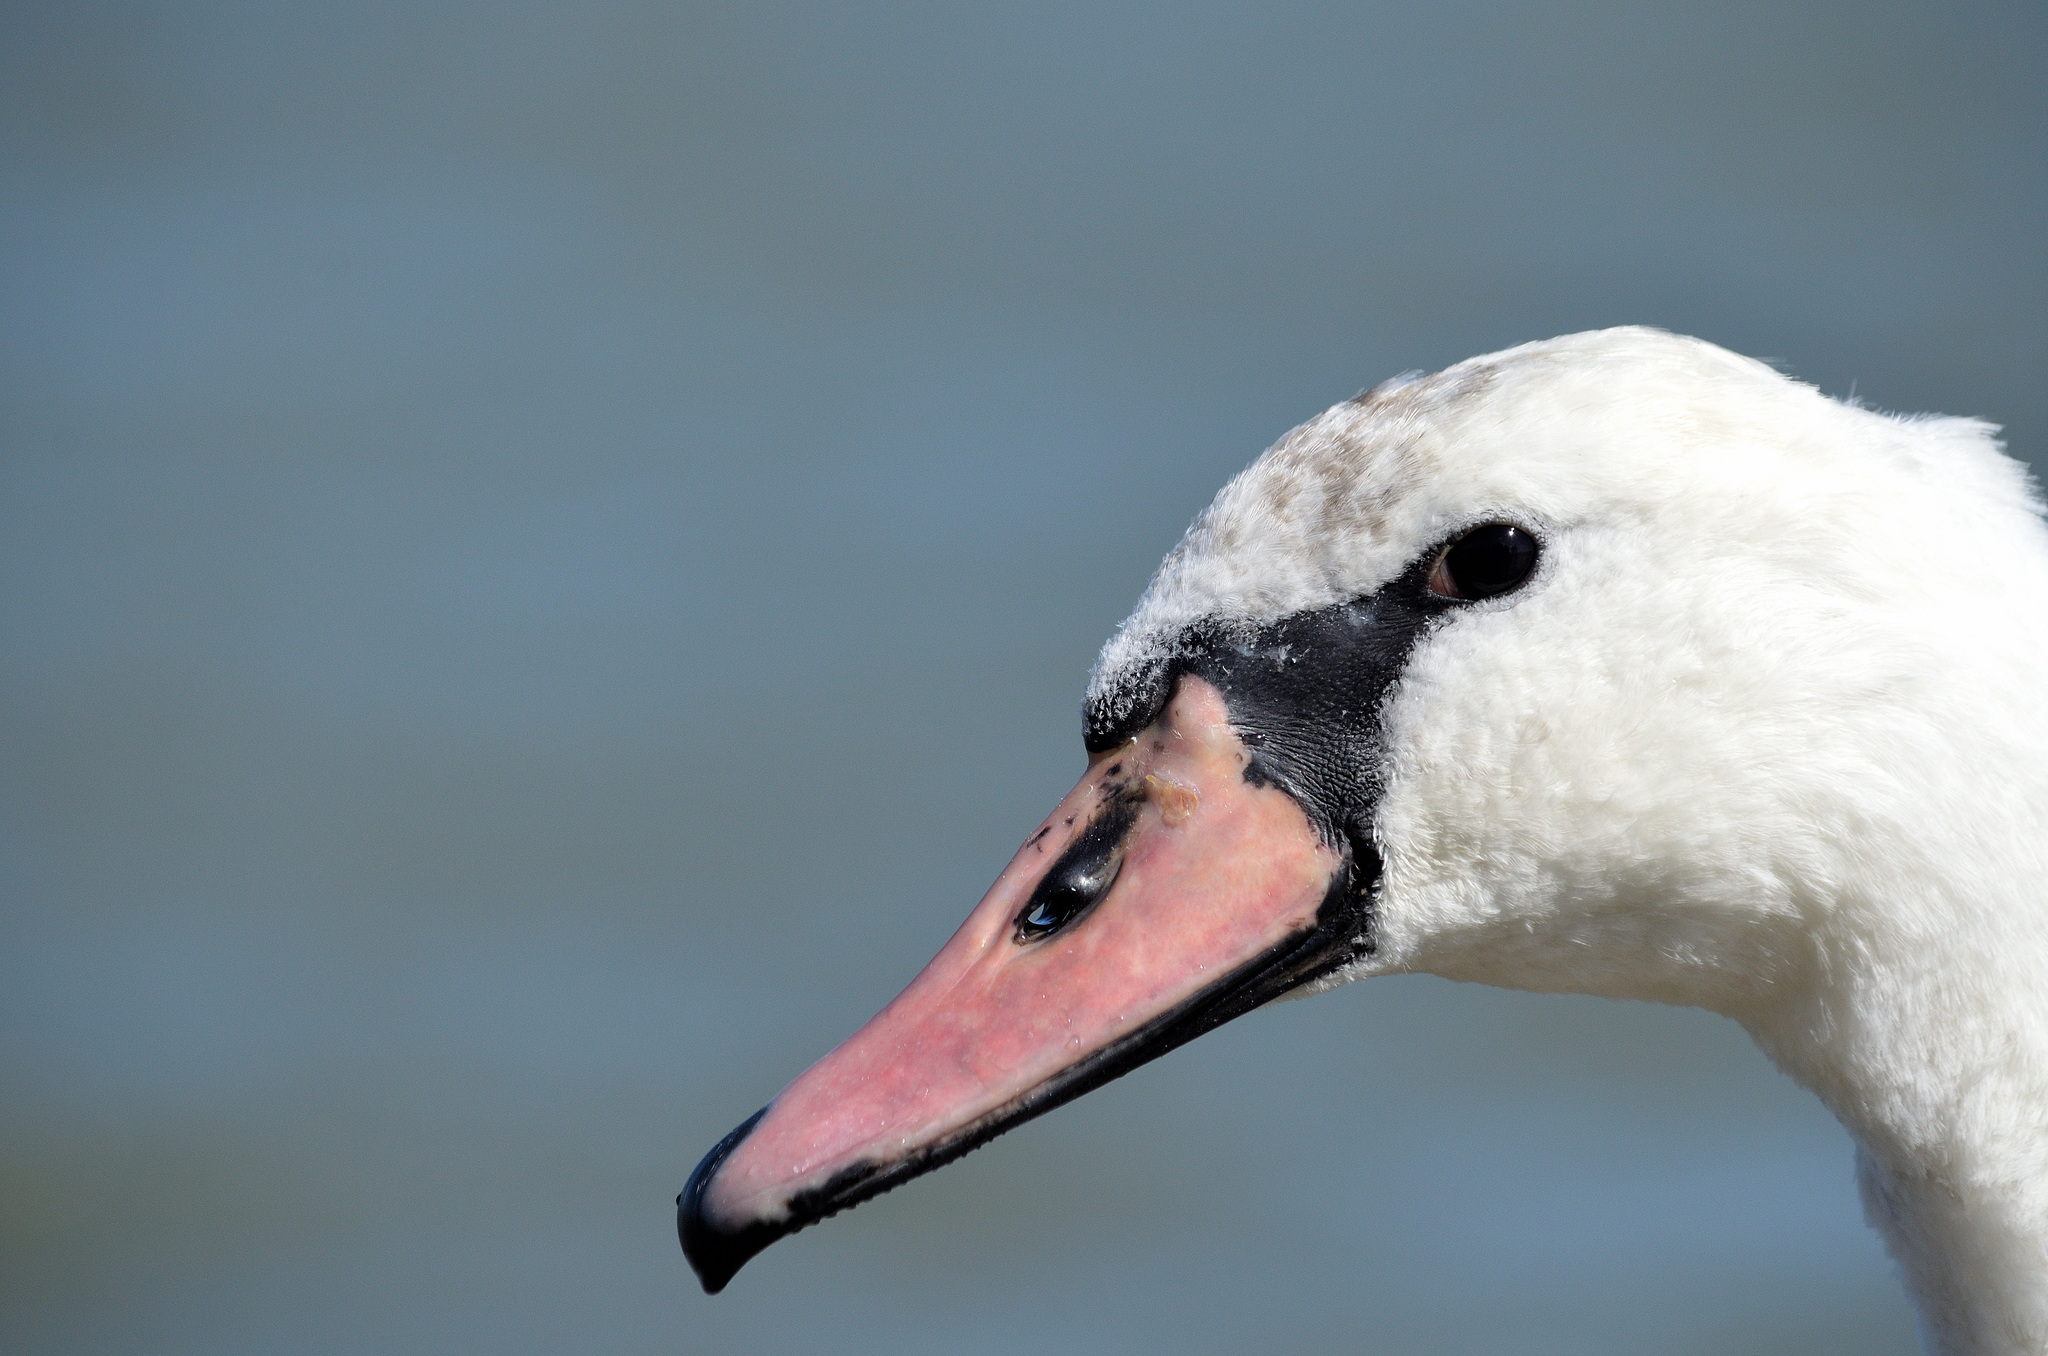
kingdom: Animalia
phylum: Chordata
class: Aves
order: Anseriformes
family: Anatidae
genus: Cygnus
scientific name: Cygnus olor
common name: Mute swan
